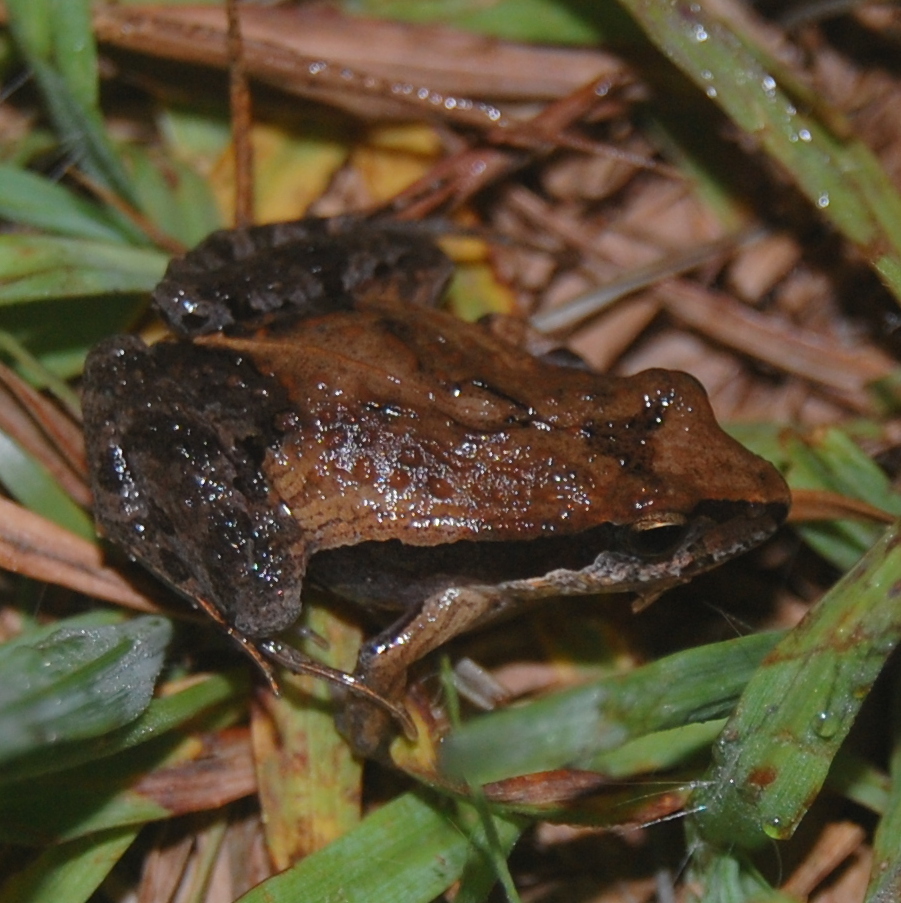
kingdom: Animalia
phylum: Chordata
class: Amphibia
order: Anura
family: Leptodactylidae
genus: Physalaemus
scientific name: Physalaemus gracilis
